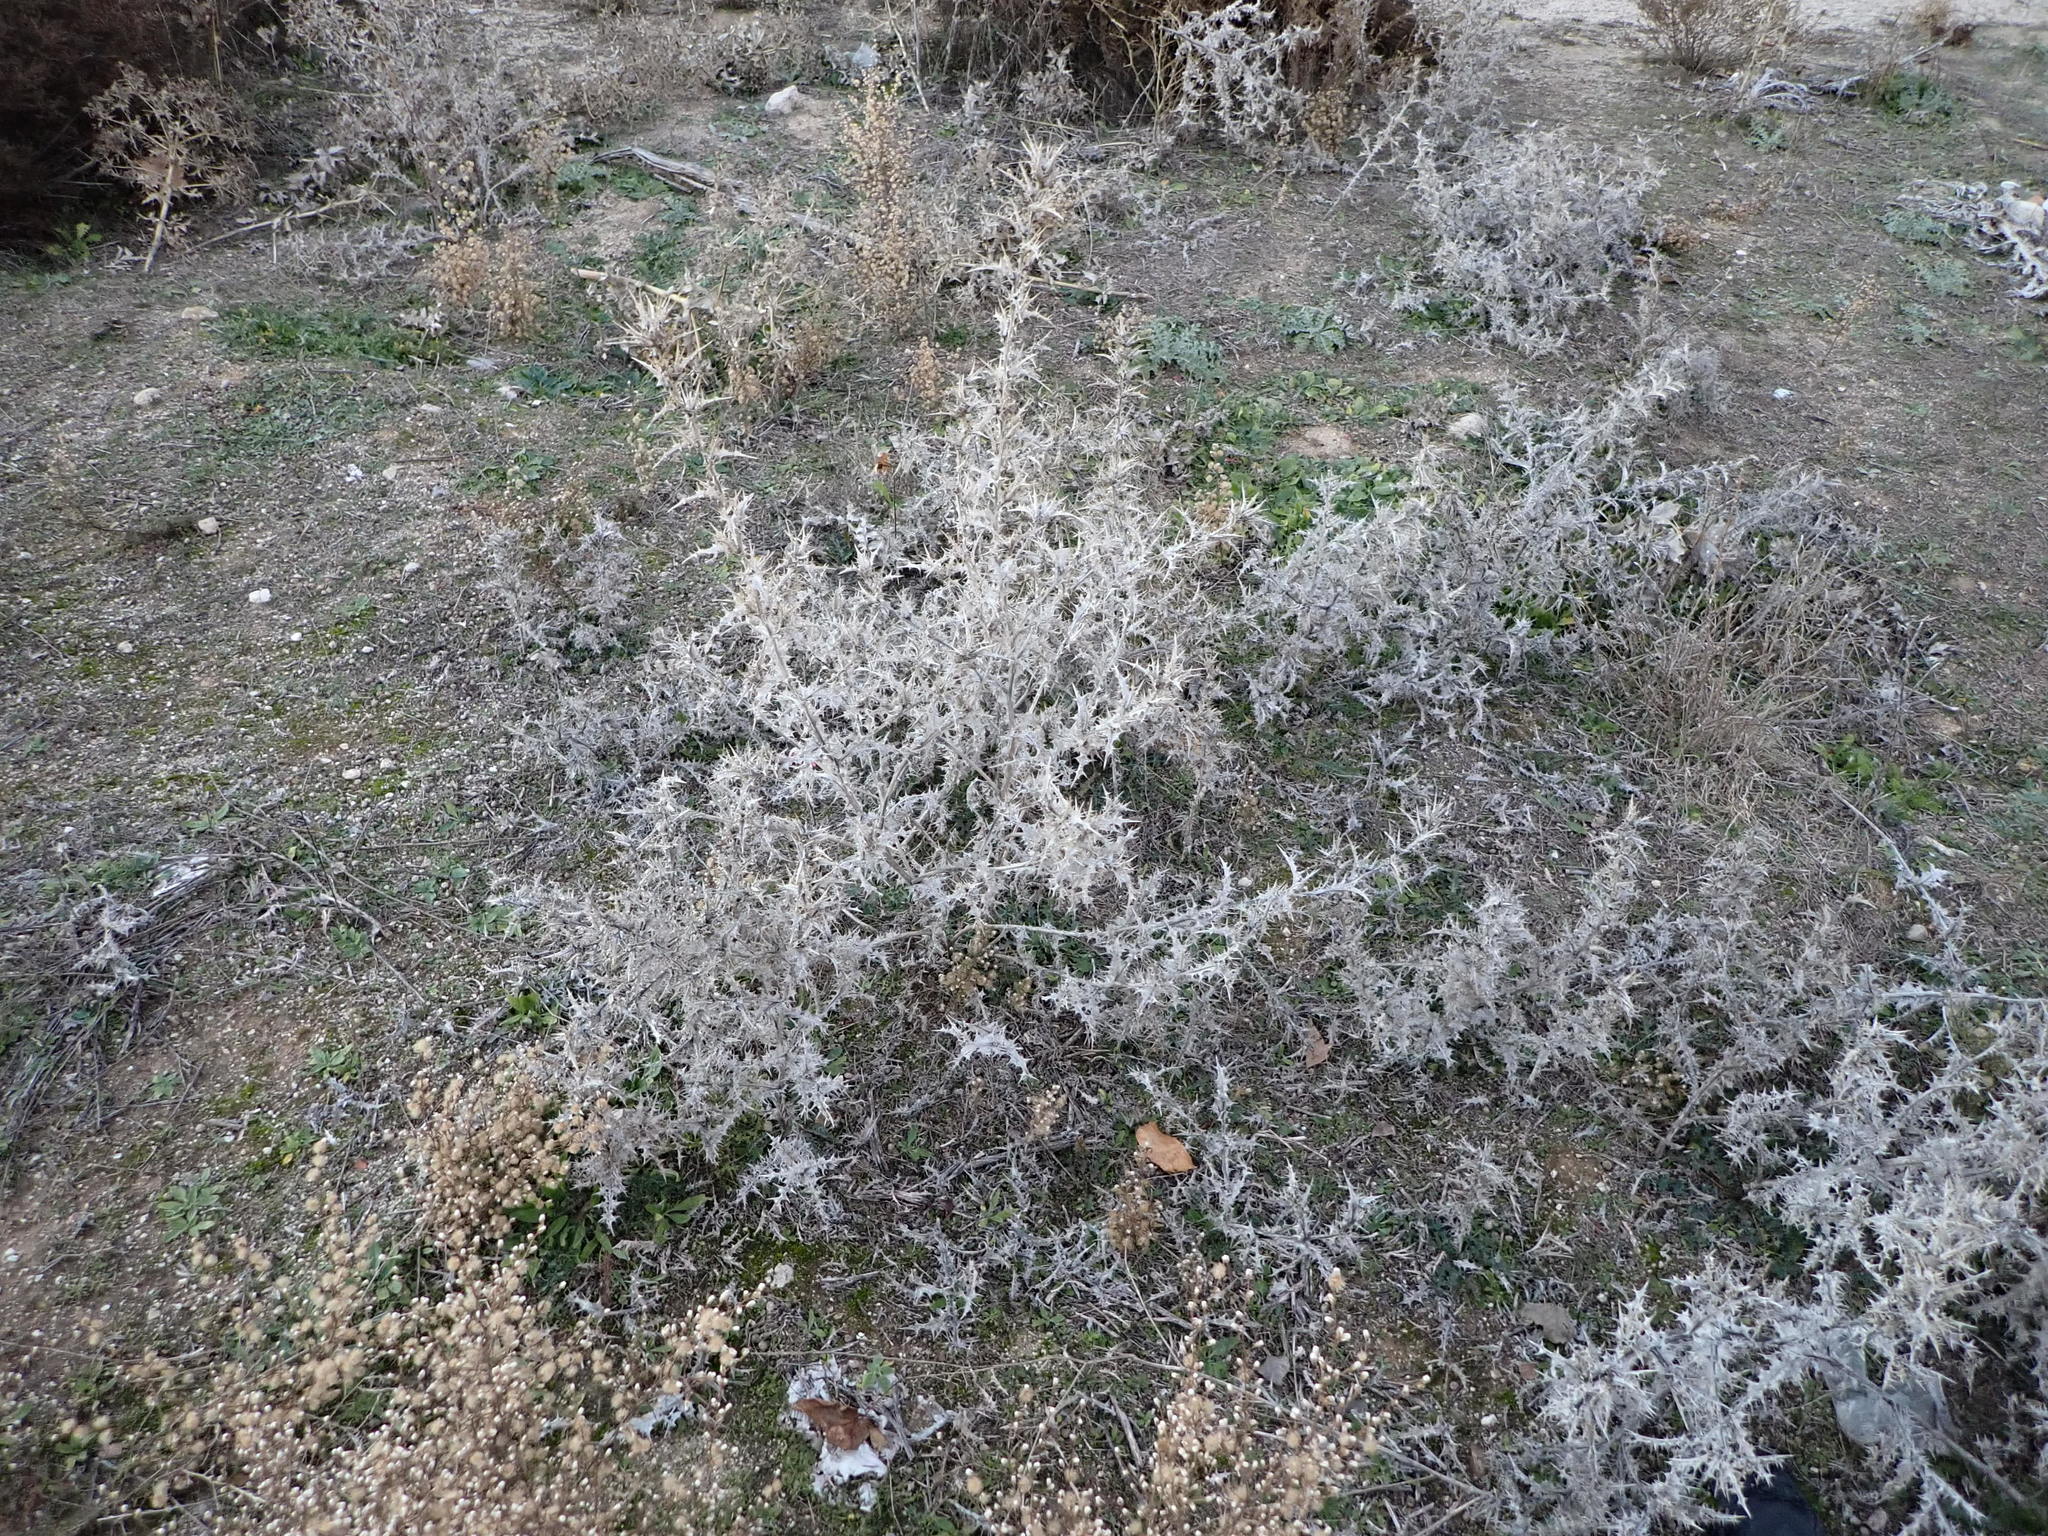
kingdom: Plantae
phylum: Tracheophyta
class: Magnoliopsida
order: Asterales
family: Asteraceae
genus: Scolymus
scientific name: Scolymus hispanicus
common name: Golden thistle
